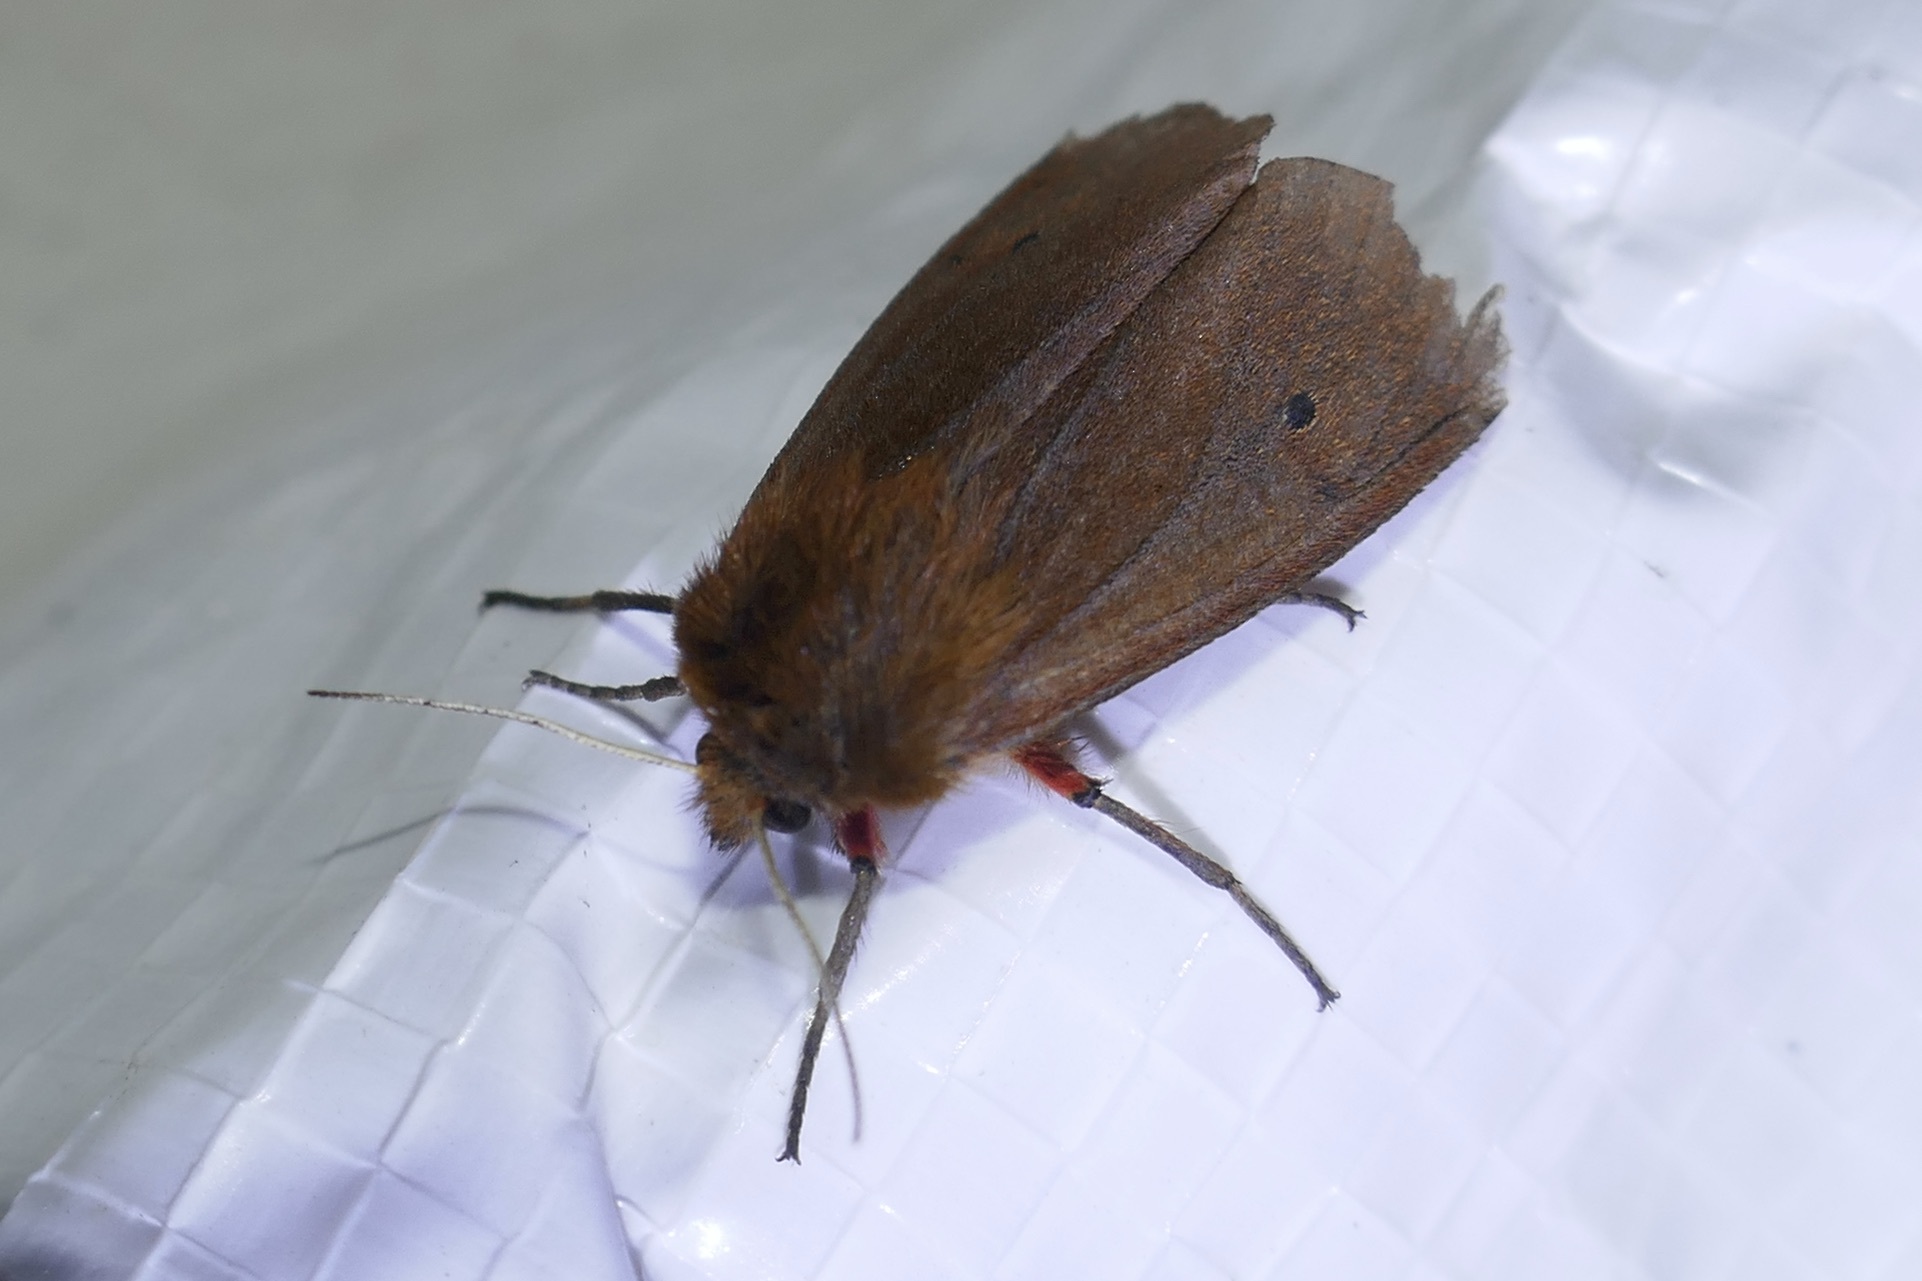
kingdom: Animalia
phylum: Arthropoda
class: Insecta
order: Lepidoptera
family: Erebidae
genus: Phragmatobia
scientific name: Phragmatobia fuliginosa
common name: Ruby tiger
